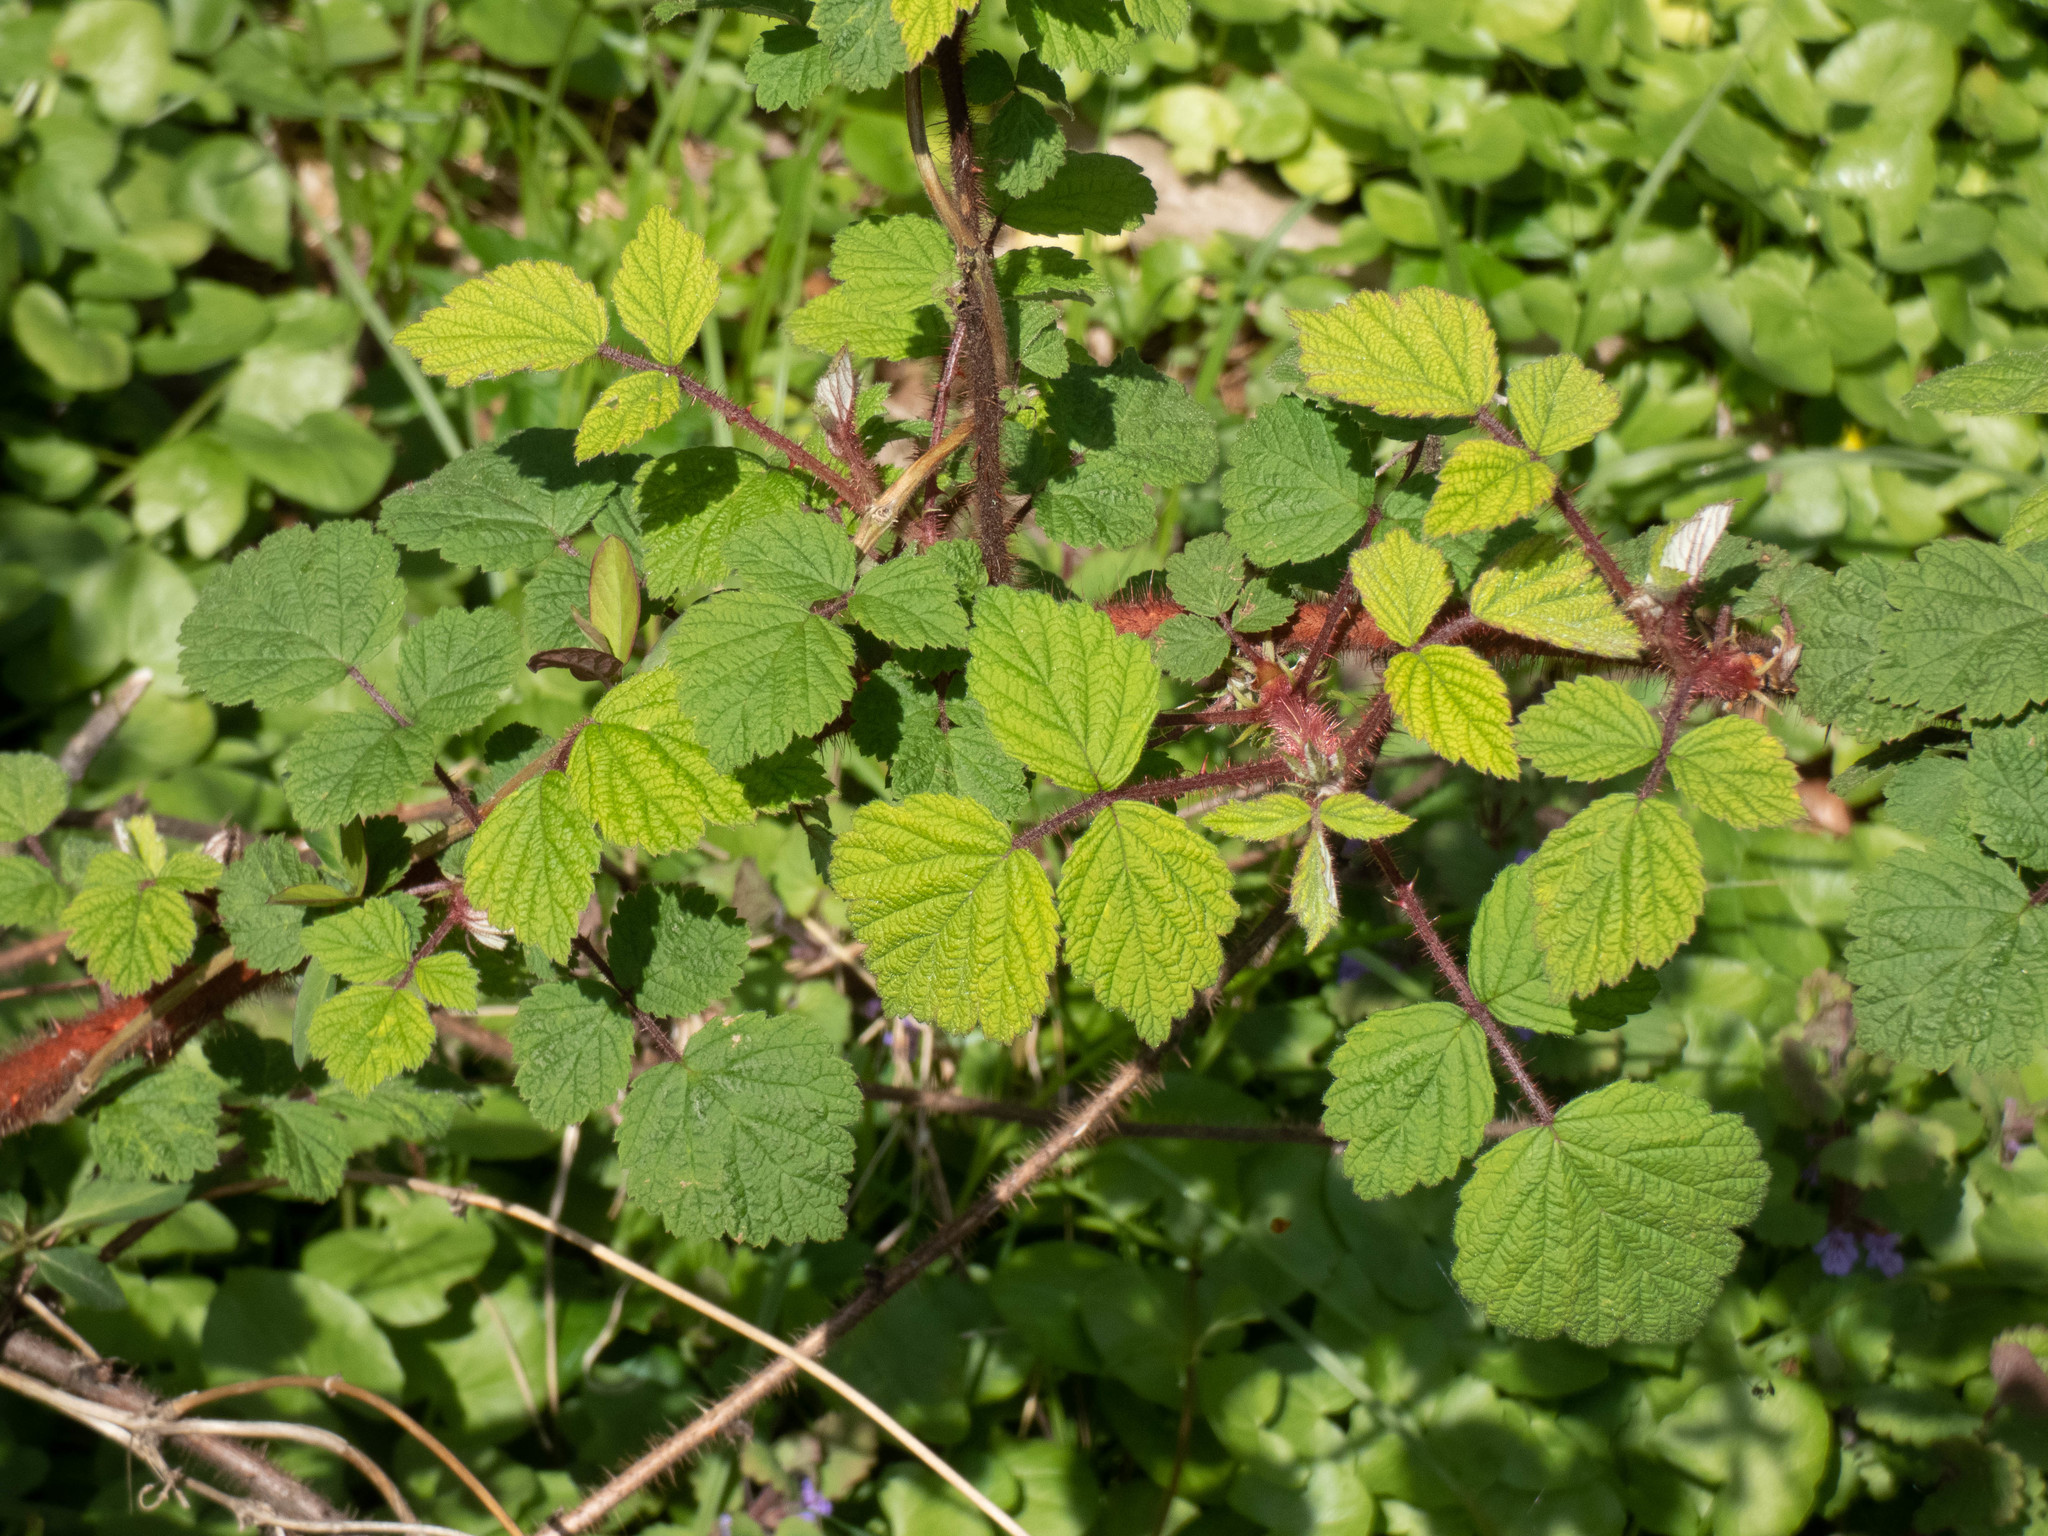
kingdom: Plantae
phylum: Tracheophyta
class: Magnoliopsida
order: Rosales
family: Rosaceae
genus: Rubus
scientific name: Rubus phoenicolasius
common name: Japanese wineberry
